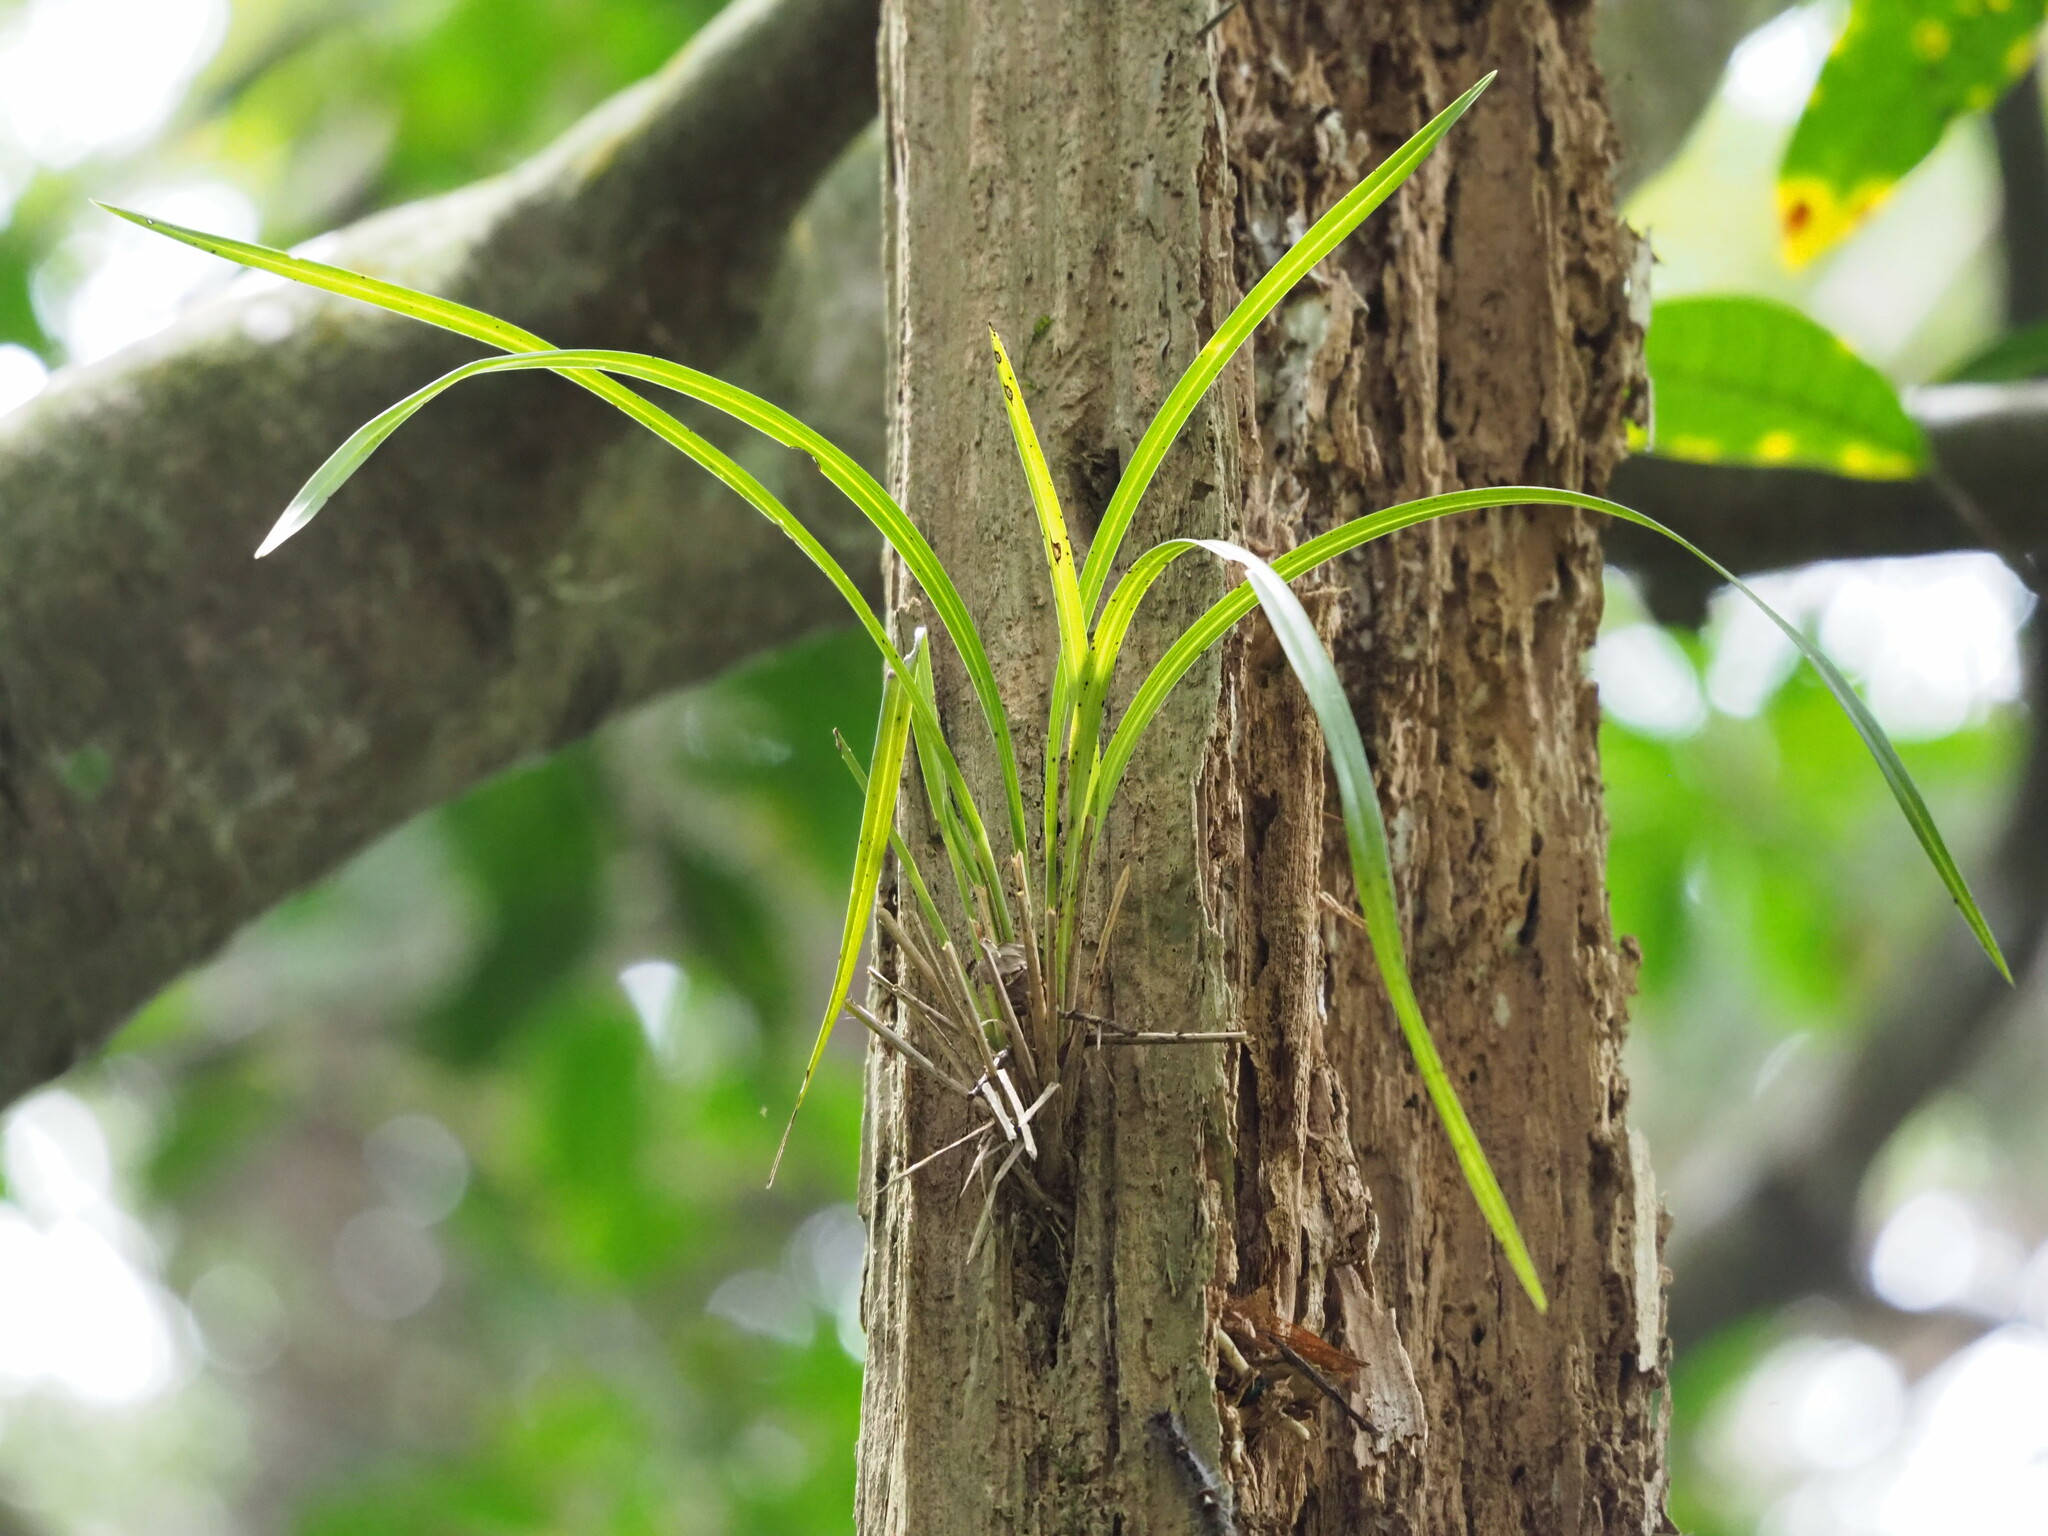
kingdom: Plantae
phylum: Tracheophyta
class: Liliopsida
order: Asparagales
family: Orchidaceae
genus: Cymbidium
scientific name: Cymbidium dayanum
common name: Orchid
